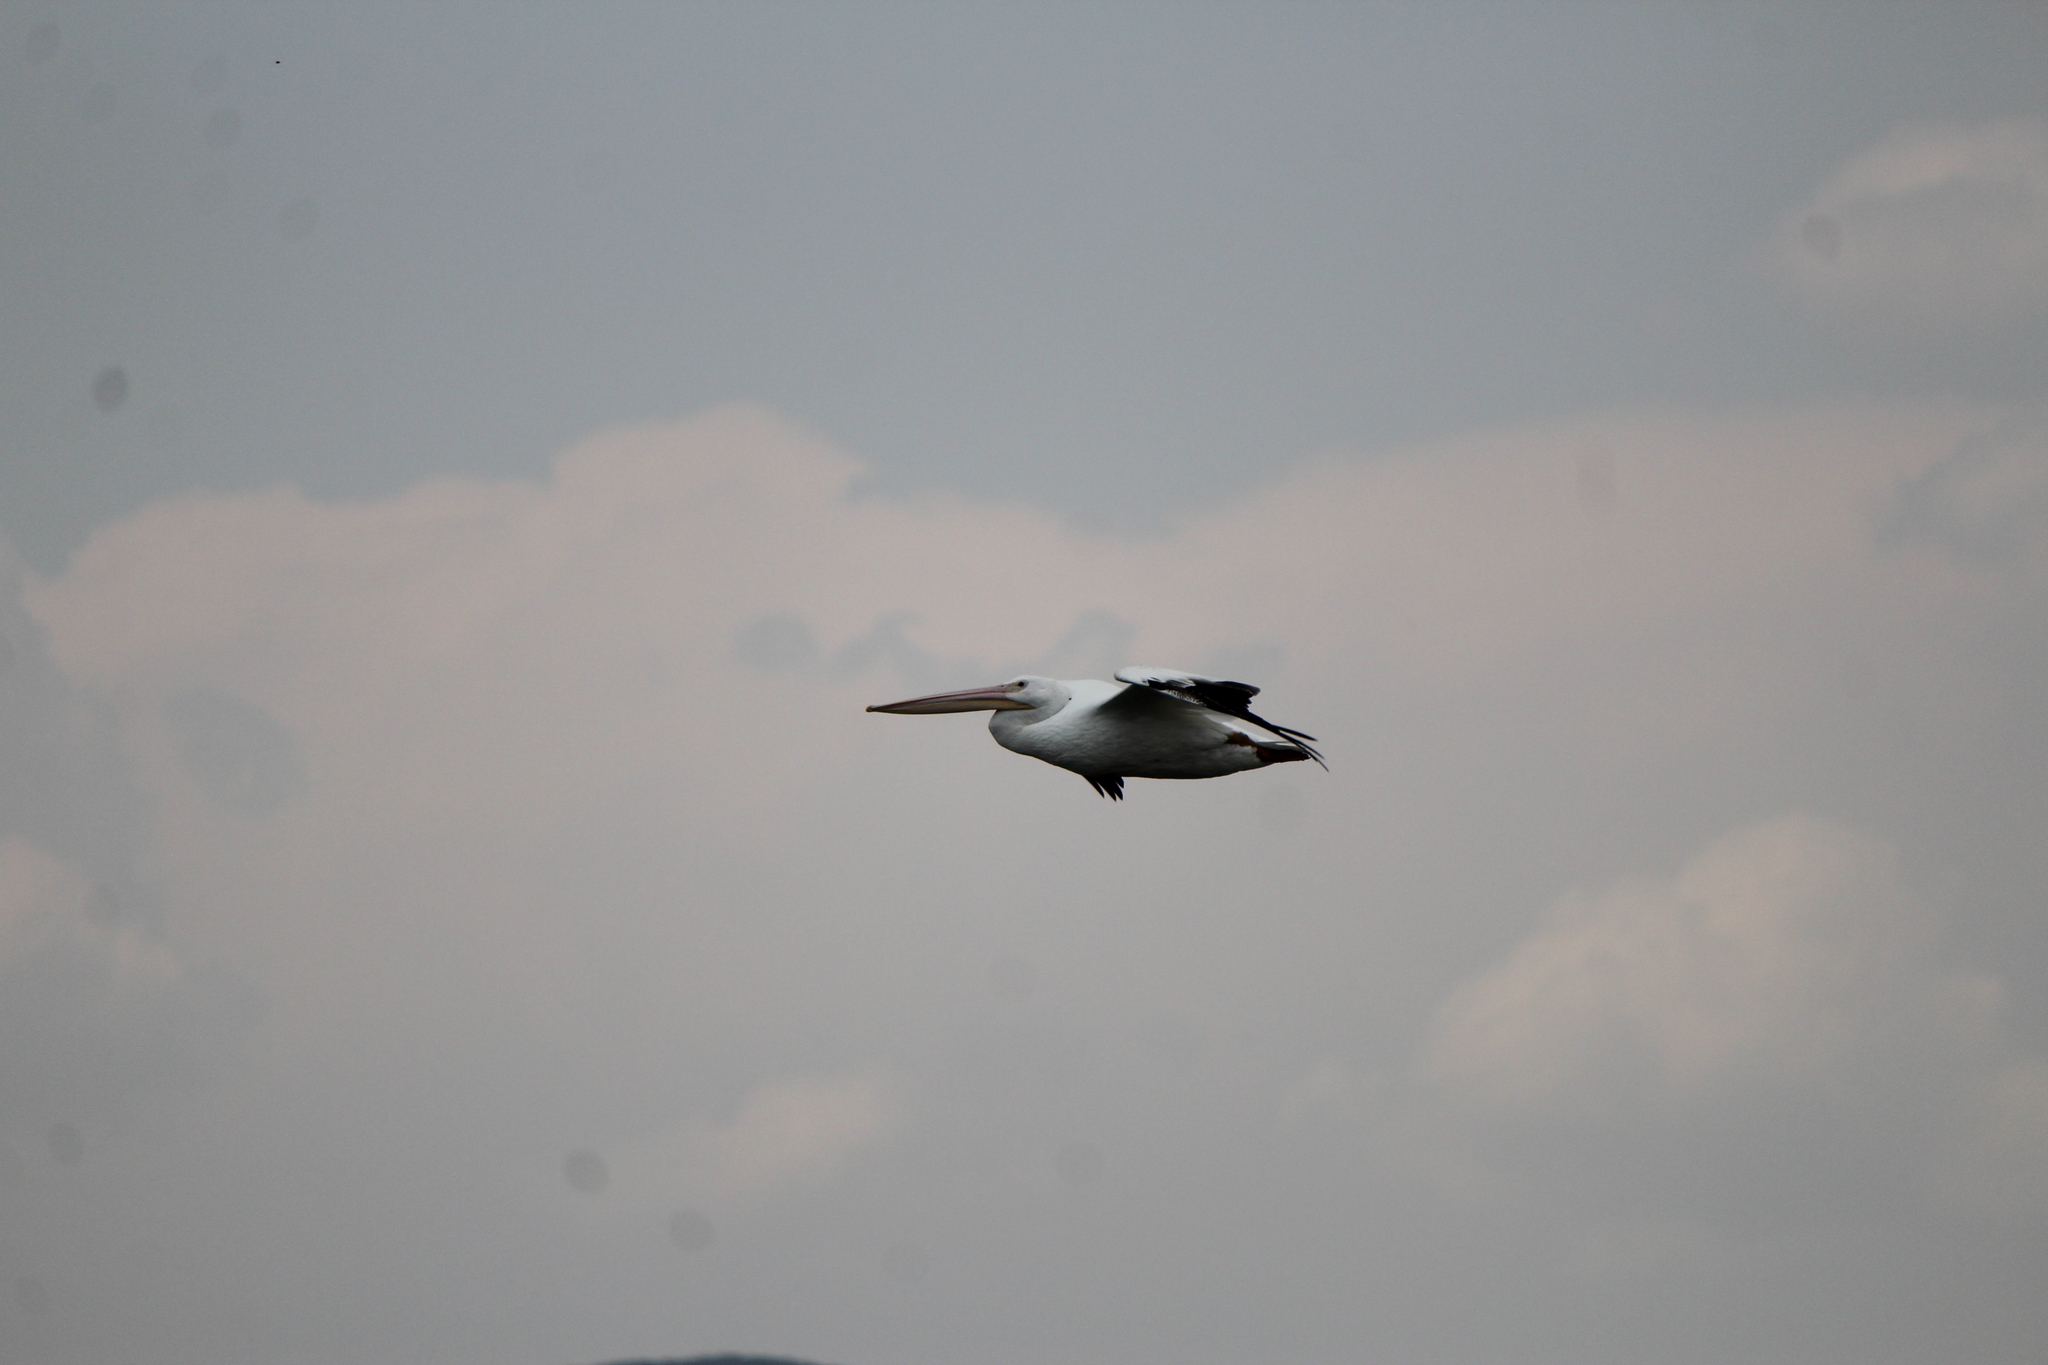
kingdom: Animalia
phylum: Chordata
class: Aves
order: Pelecaniformes
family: Pelecanidae
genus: Pelecanus
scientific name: Pelecanus erythrorhynchos
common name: American white pelican
